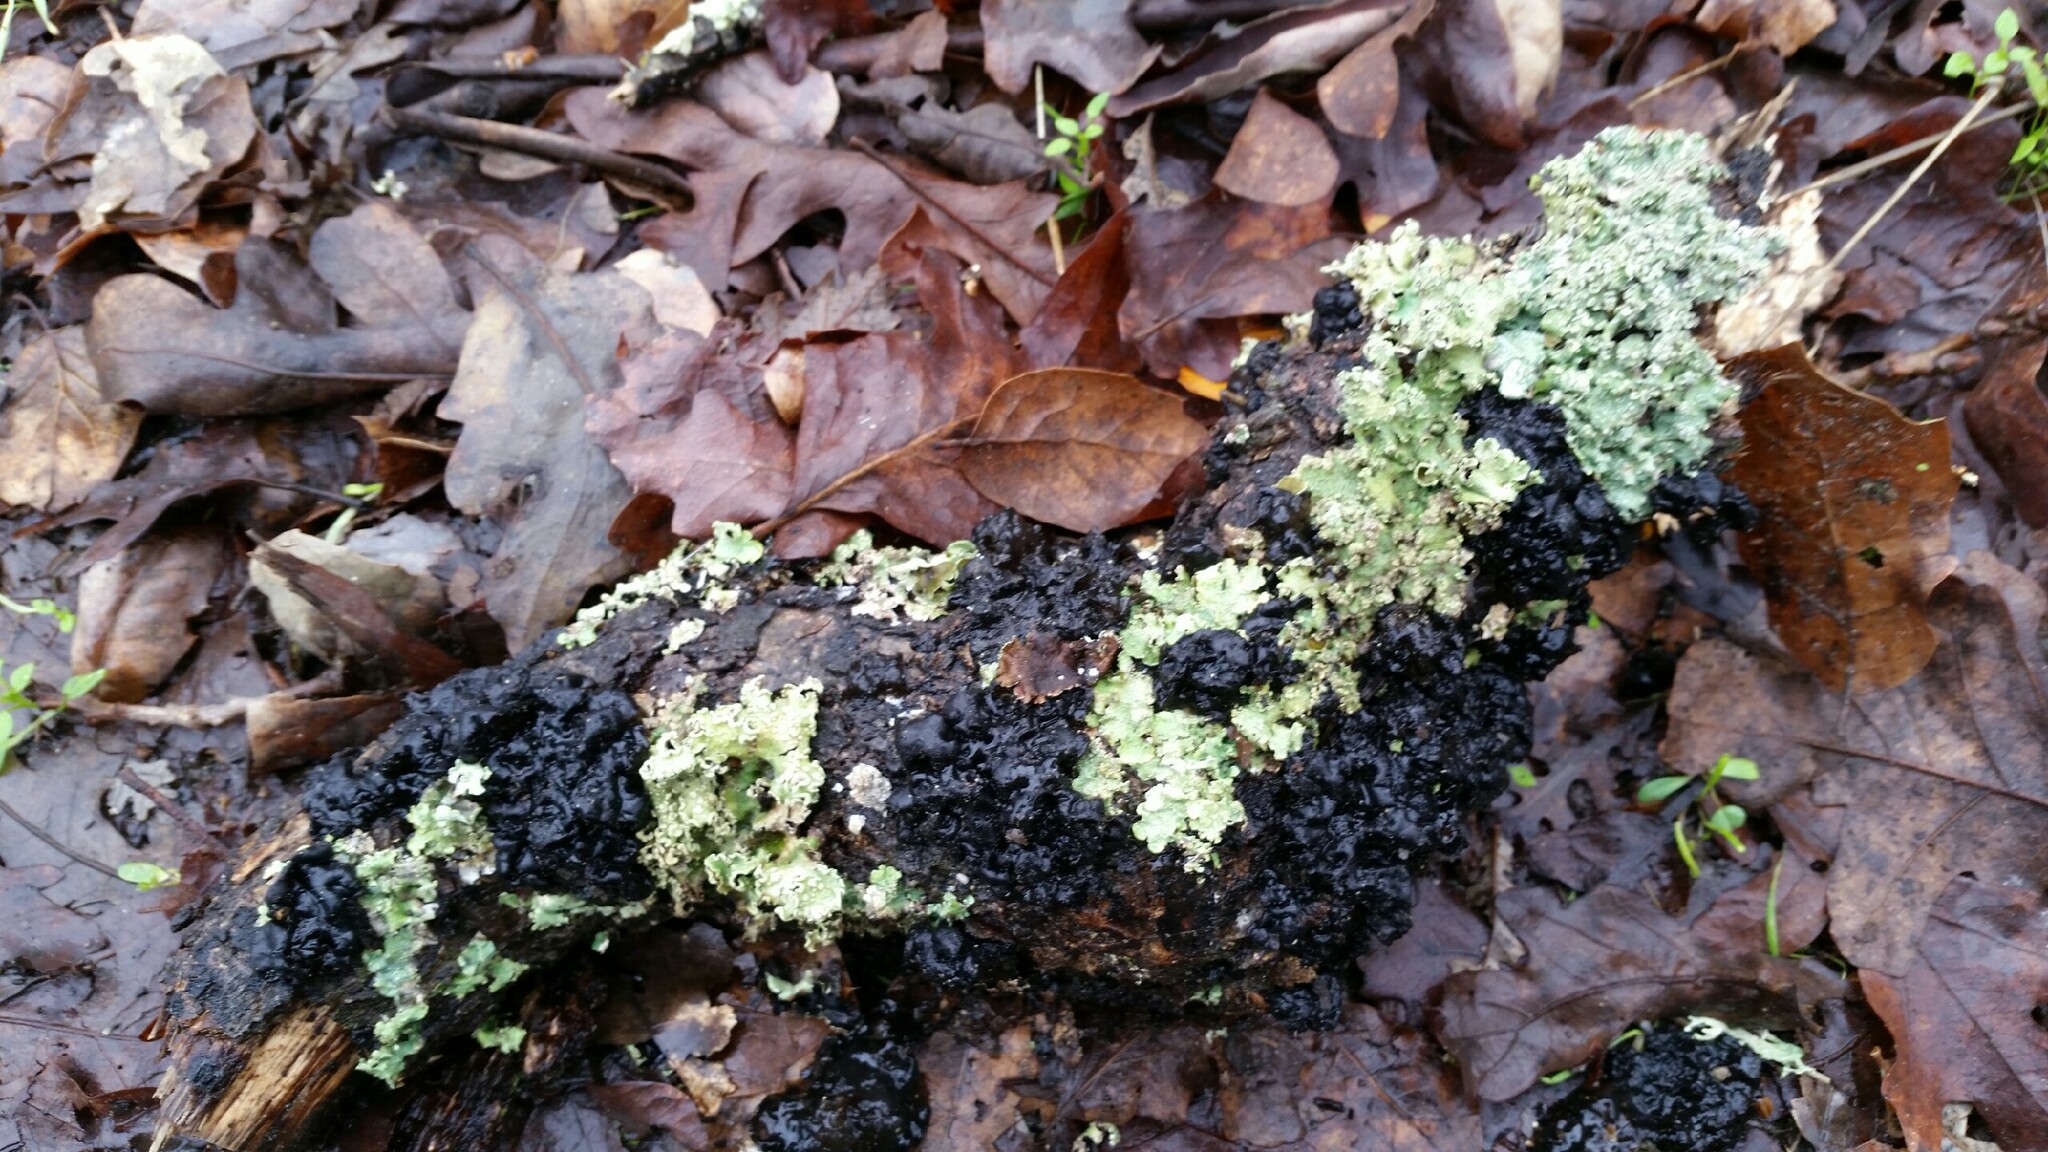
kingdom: Fungi
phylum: Basidiomycota
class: Agaricomycetes
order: Auriculariales
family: Auriculariaceae
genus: Exidia
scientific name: Exidia glandulosa
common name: Witches' butter
